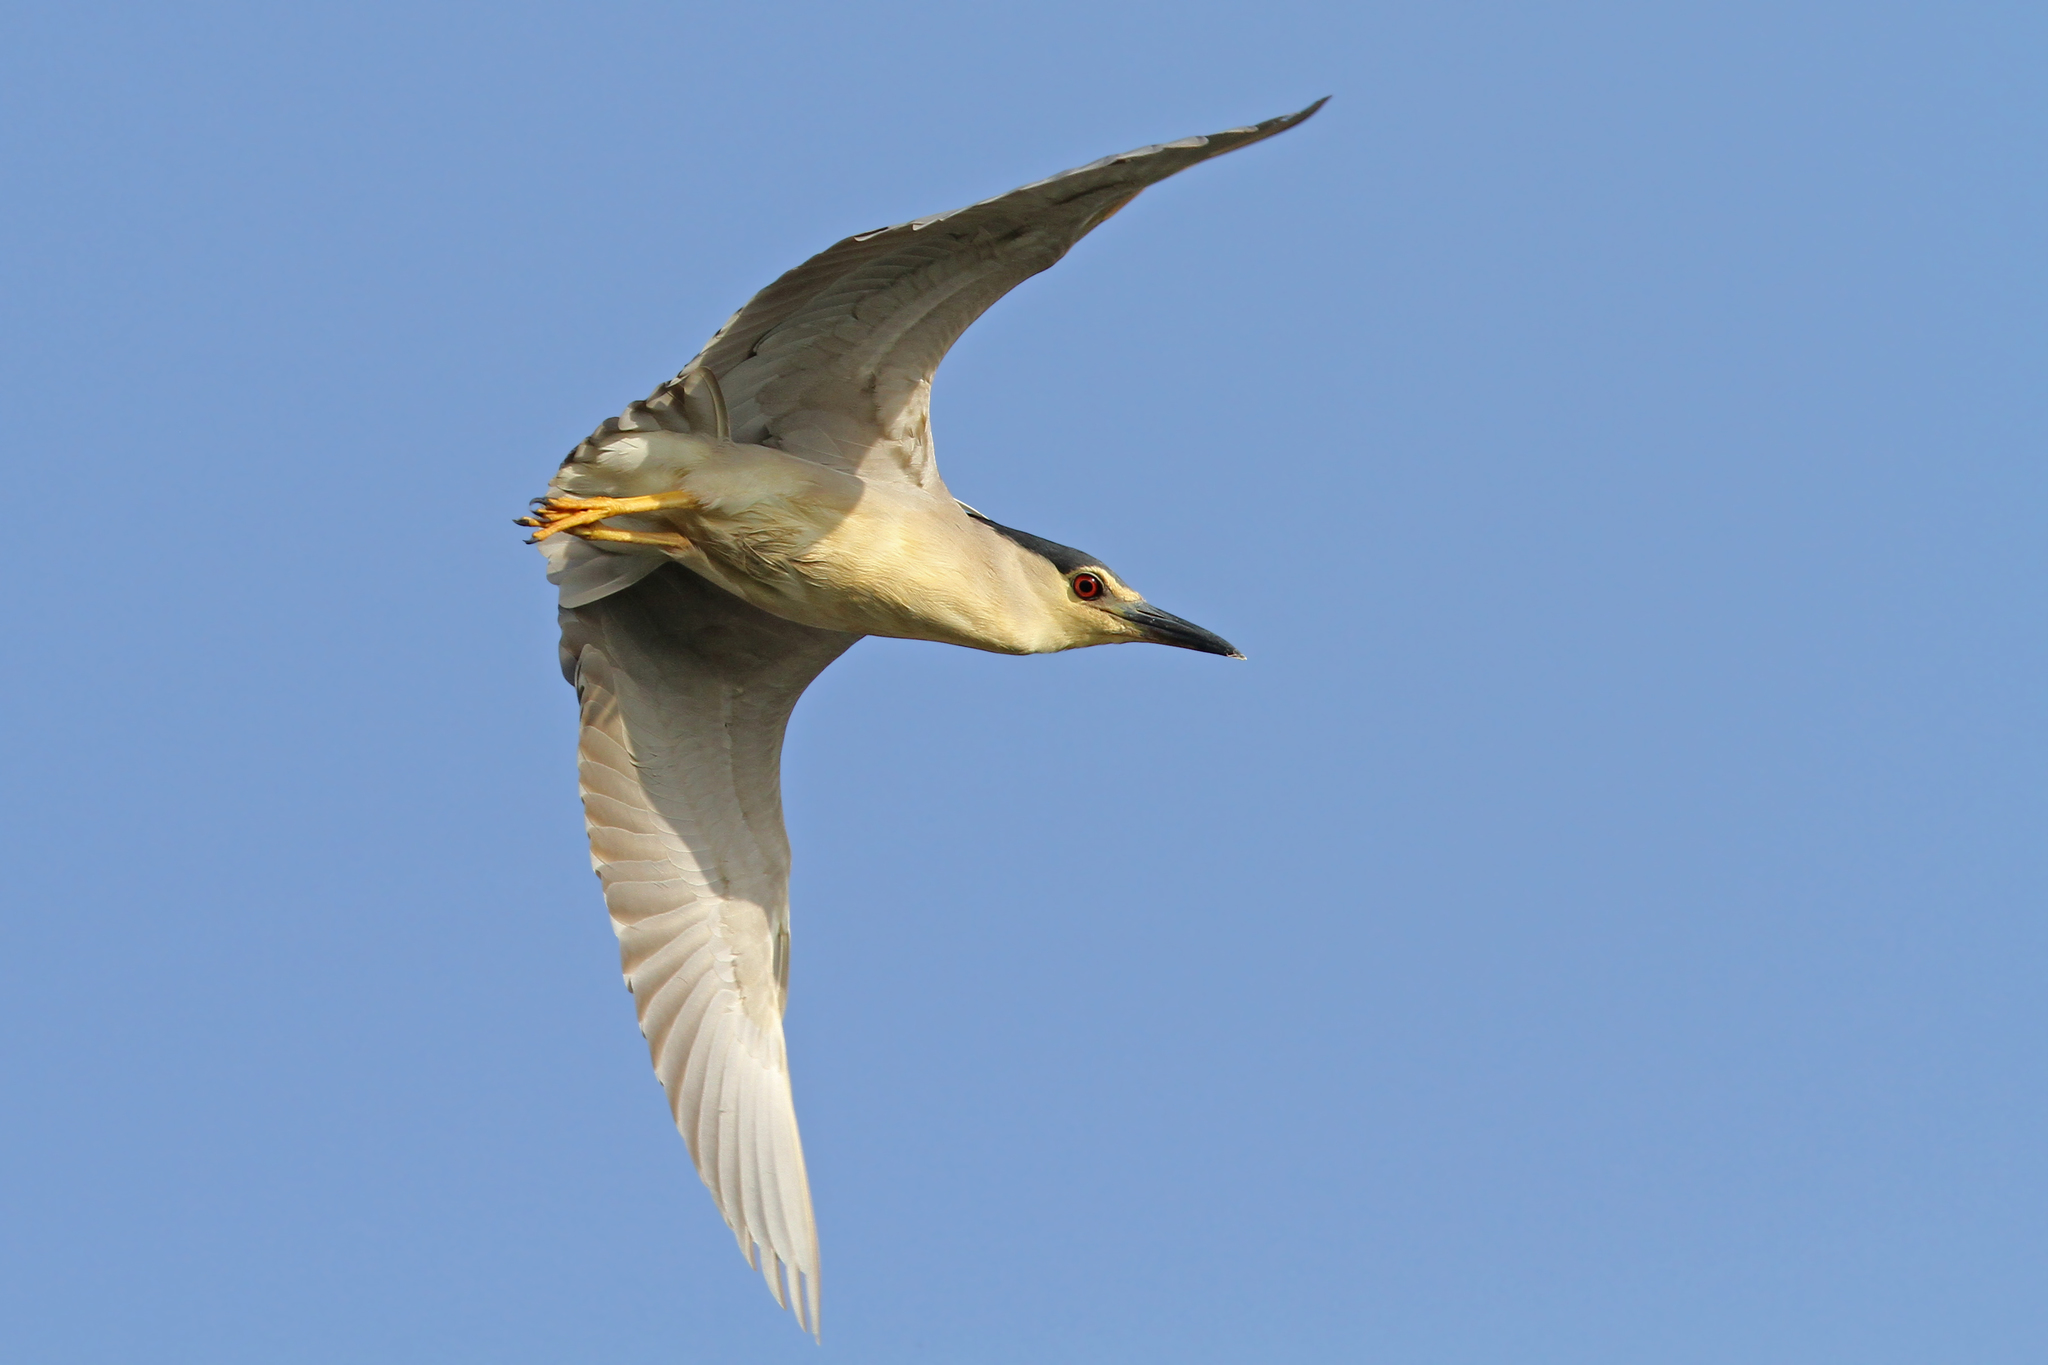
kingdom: Animalia
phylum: Chordata
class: Aves
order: Pelecaniformes
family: Ardeidae
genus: Nycticorax
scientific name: Nycticorax nycticorax
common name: Black-crowned night heron
